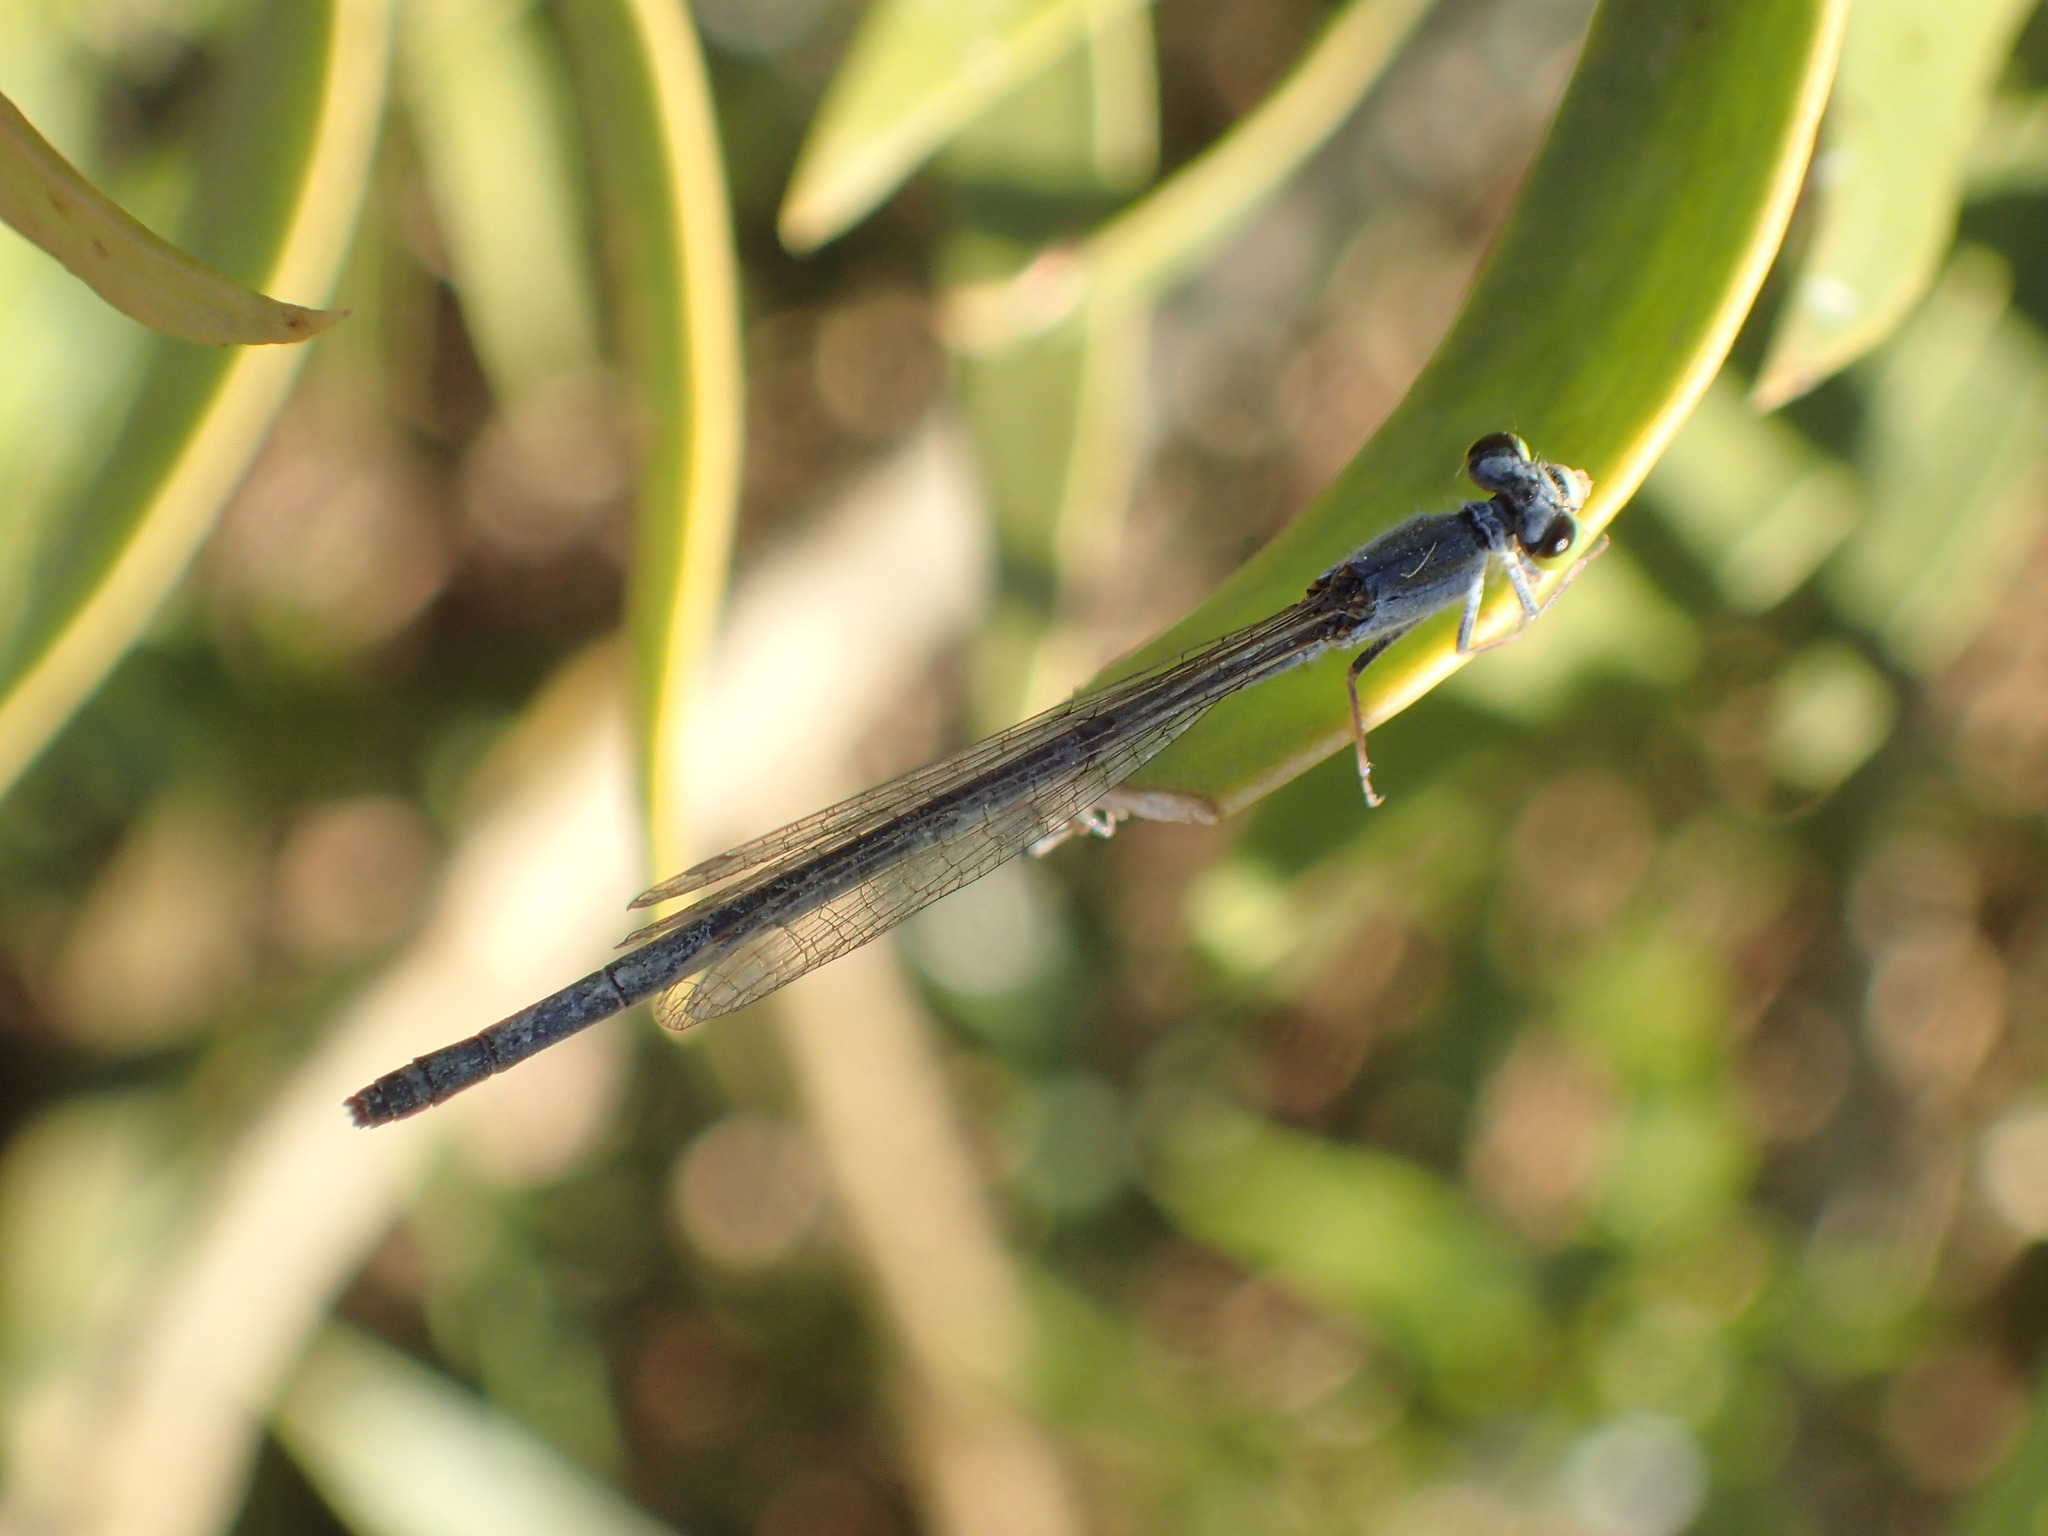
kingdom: Animalia
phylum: Arthropoda
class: Insecta
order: Odonata
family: Coenagrionidae
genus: Ischnura
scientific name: Ischnura heterosticta
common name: Common bluetail
